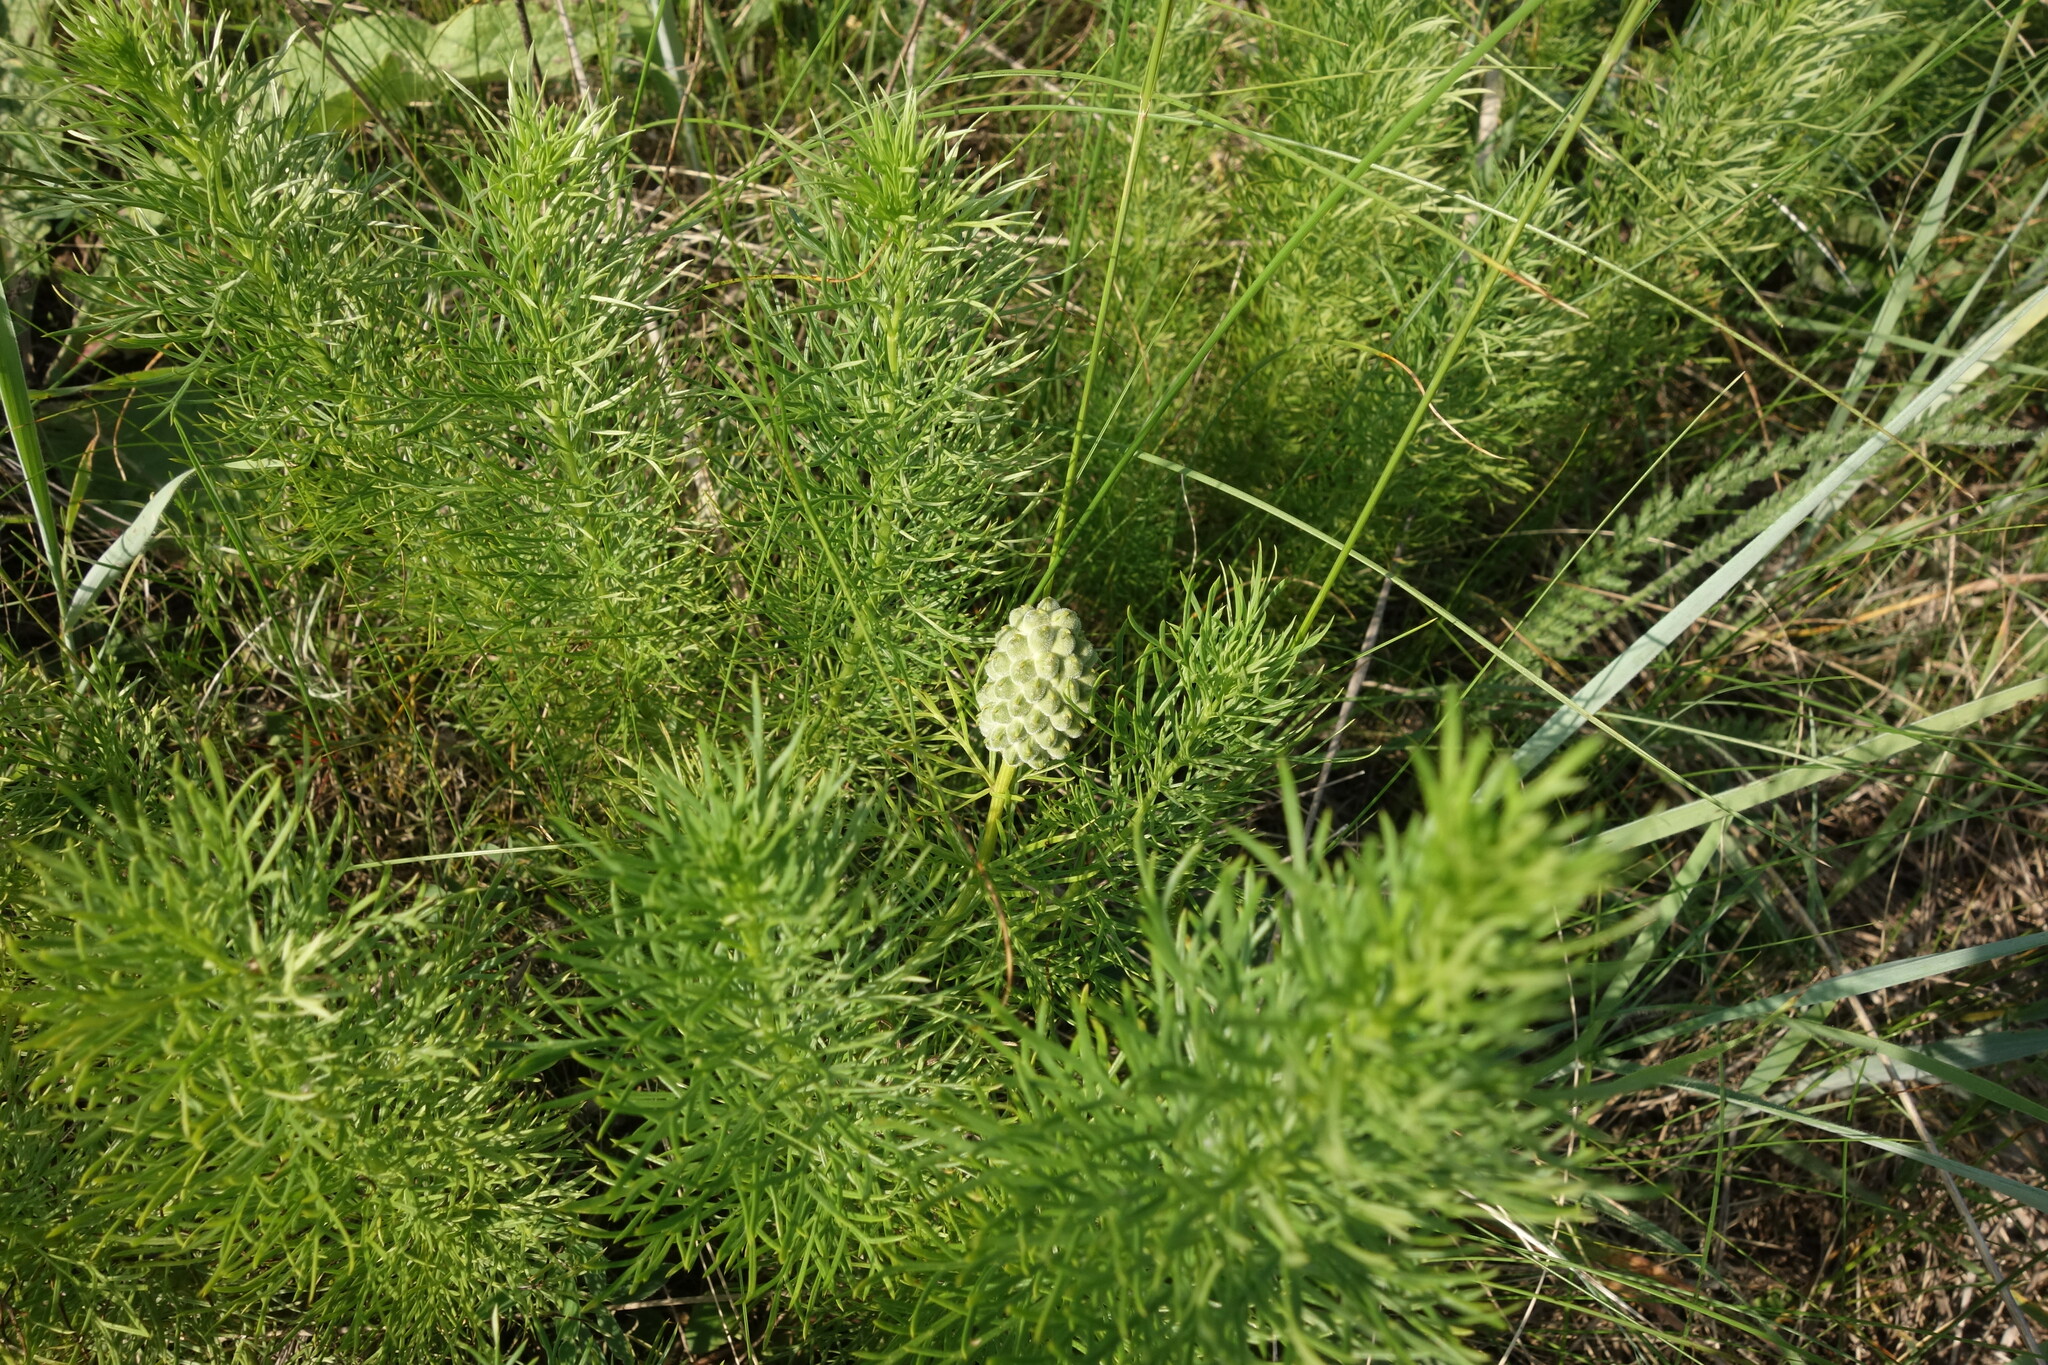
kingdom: Plantae
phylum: Tracheophyta
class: Magnoliopsida
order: Ranunculales
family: Ranunculaceae
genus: Adonis
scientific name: Adonis vernalis
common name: Yellow pheasants-eye
